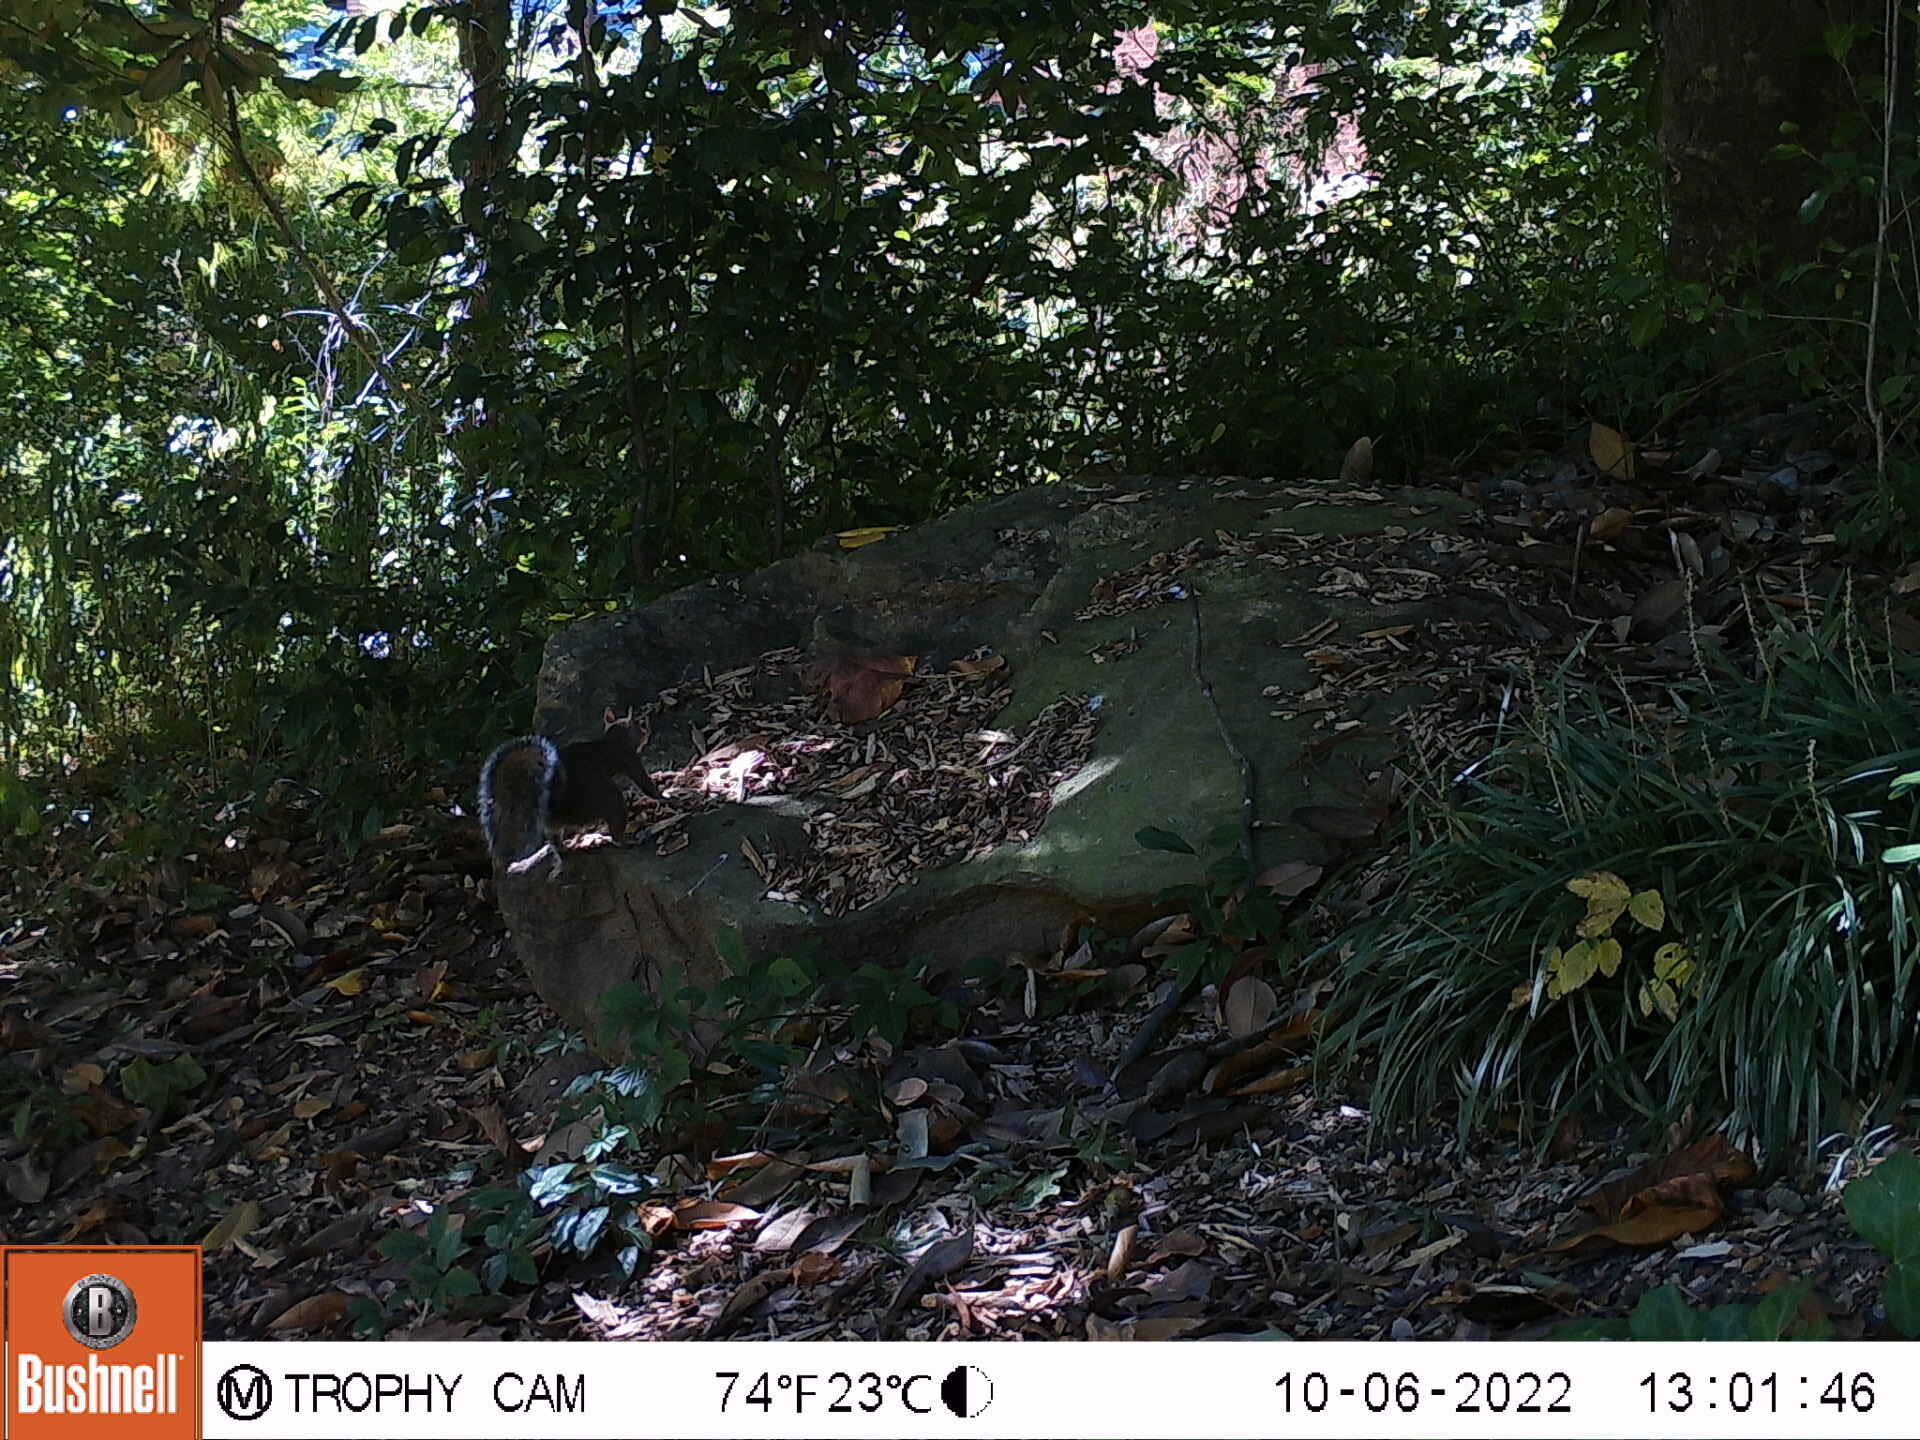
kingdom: Animalia
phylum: Chordata
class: Mammalia
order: Rodentia
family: Sciuridae
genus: Sciurus
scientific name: Sciurus carolinensis
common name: Eastern gray squirrel
